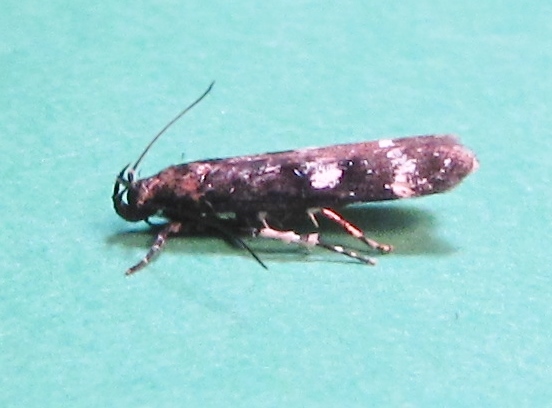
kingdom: Animalia
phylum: Arthropoda
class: Insecta
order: Lepidoptera
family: Gelechiidae
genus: Fascista
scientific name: Fascista bimaculella
